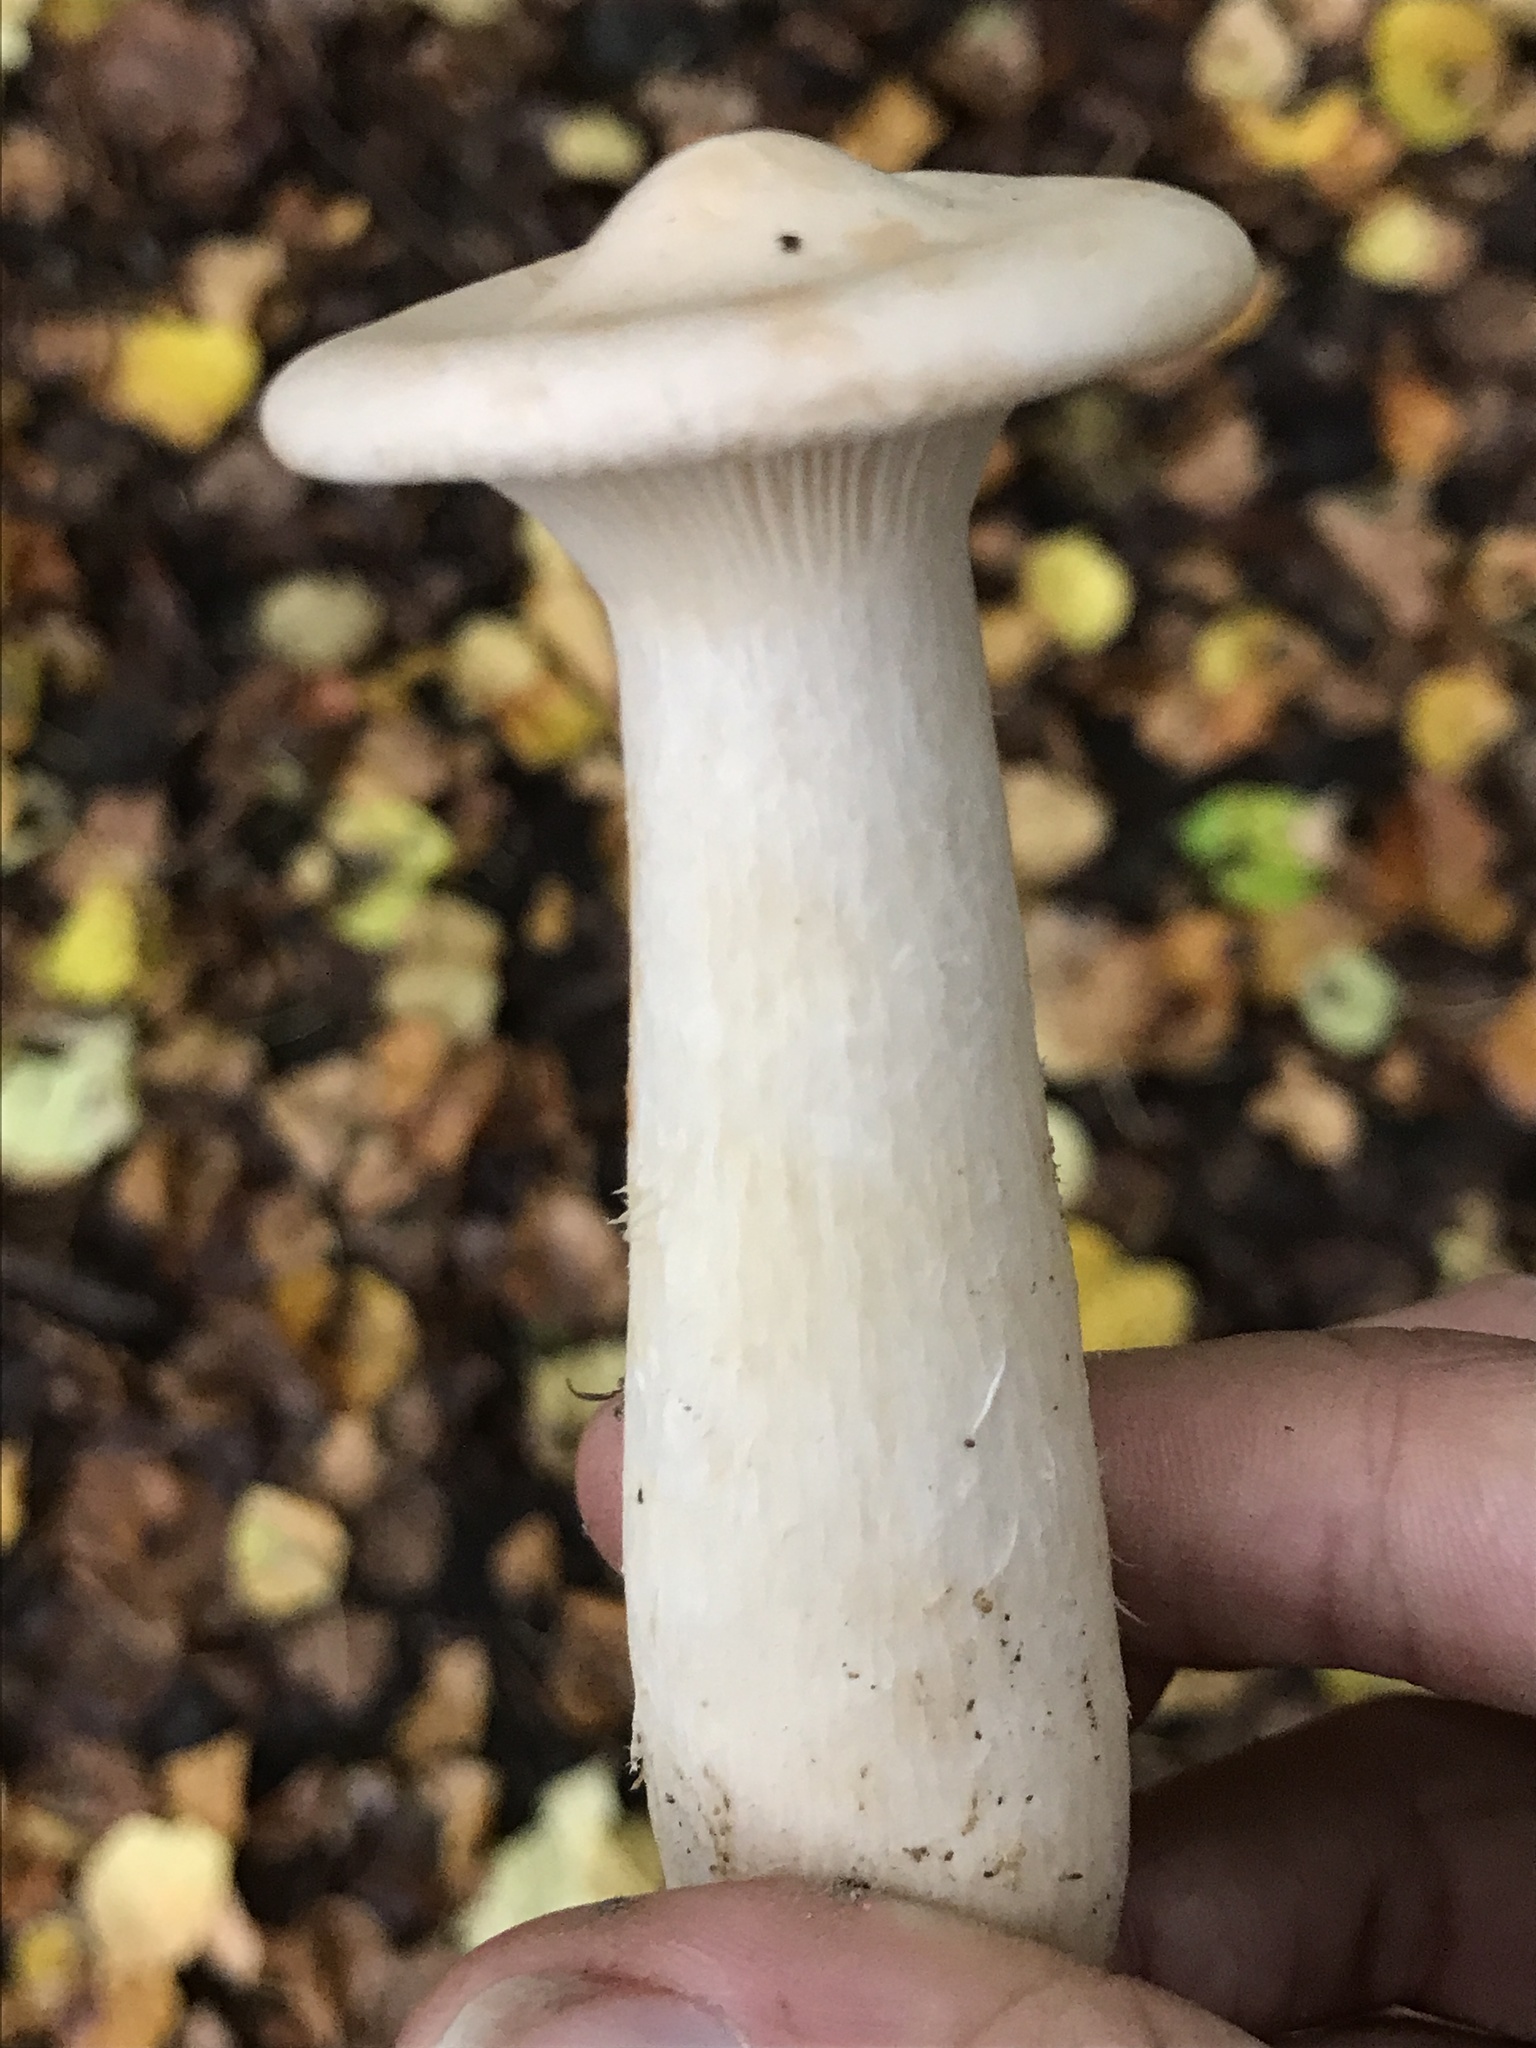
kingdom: Fungi
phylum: Basidiomycota
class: Agaricomycetes
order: Agaricales
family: Tricholomataceae
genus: Infundibulicybe
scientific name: Infundibulicybe geotropa
